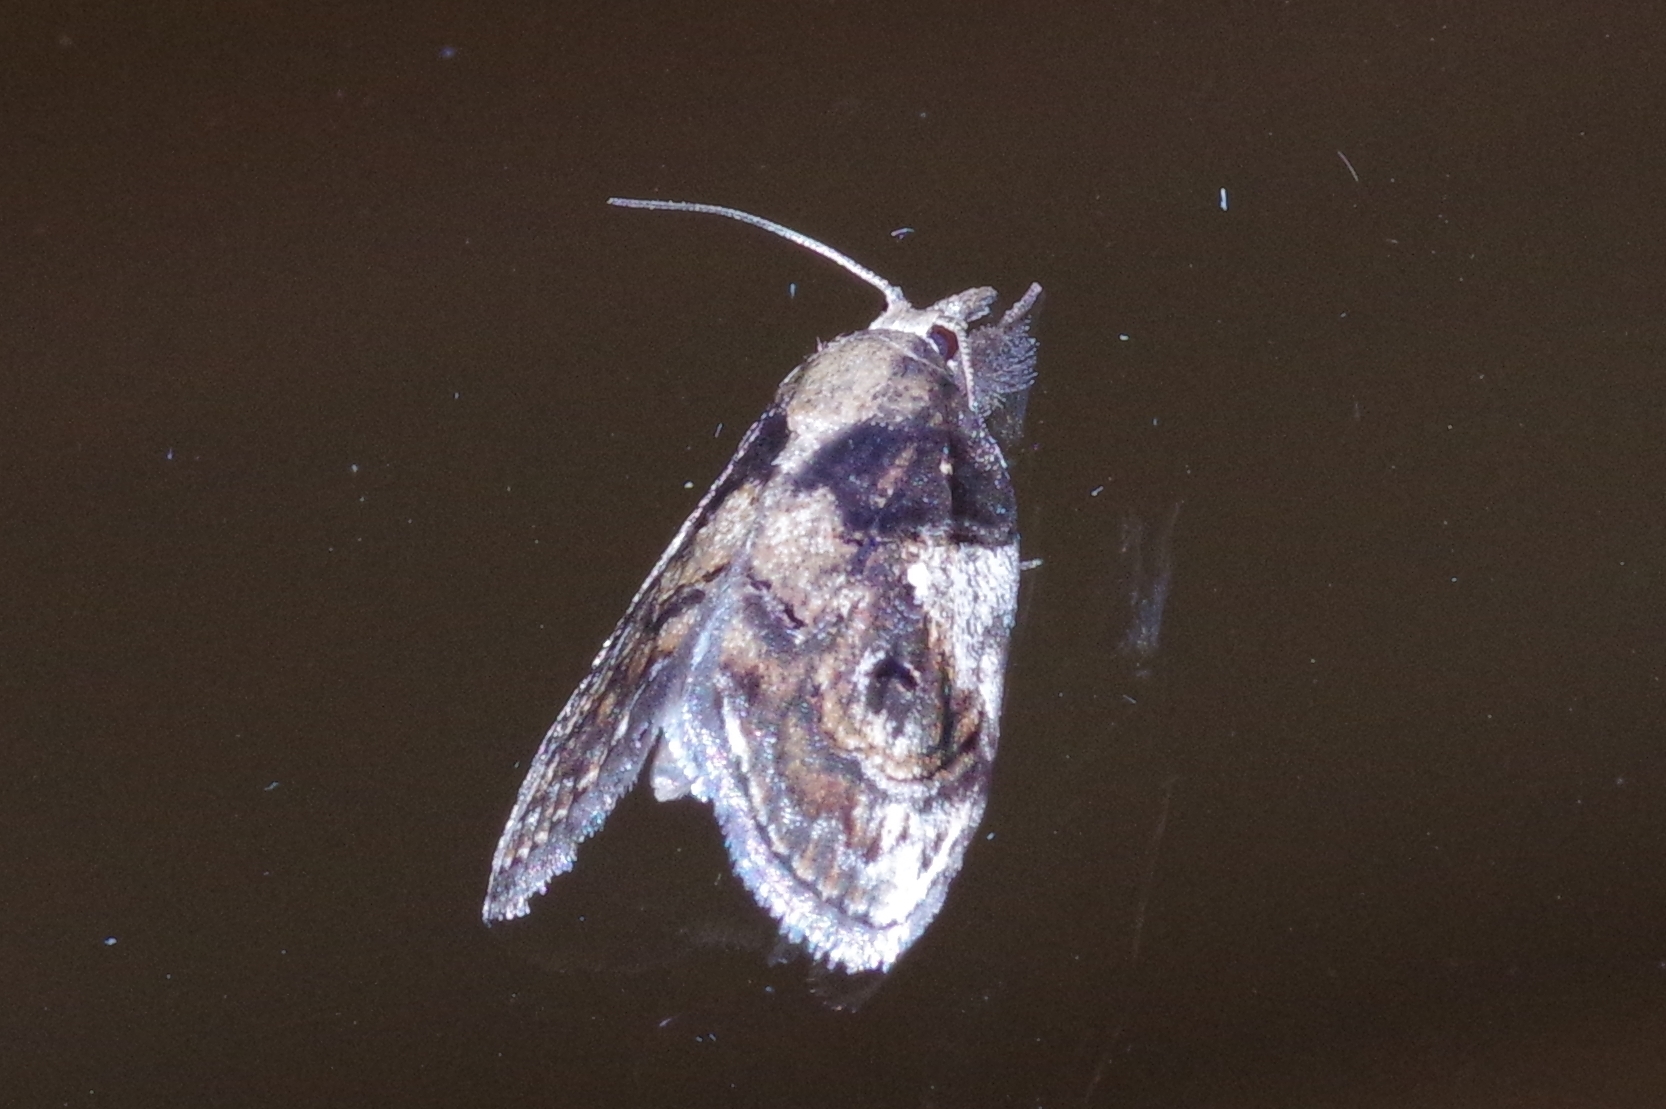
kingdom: Animalia
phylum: Arthropoda
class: Insecta
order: Lepidoptera
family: Nolidae
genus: Selepa
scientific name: Selepa molybdea
